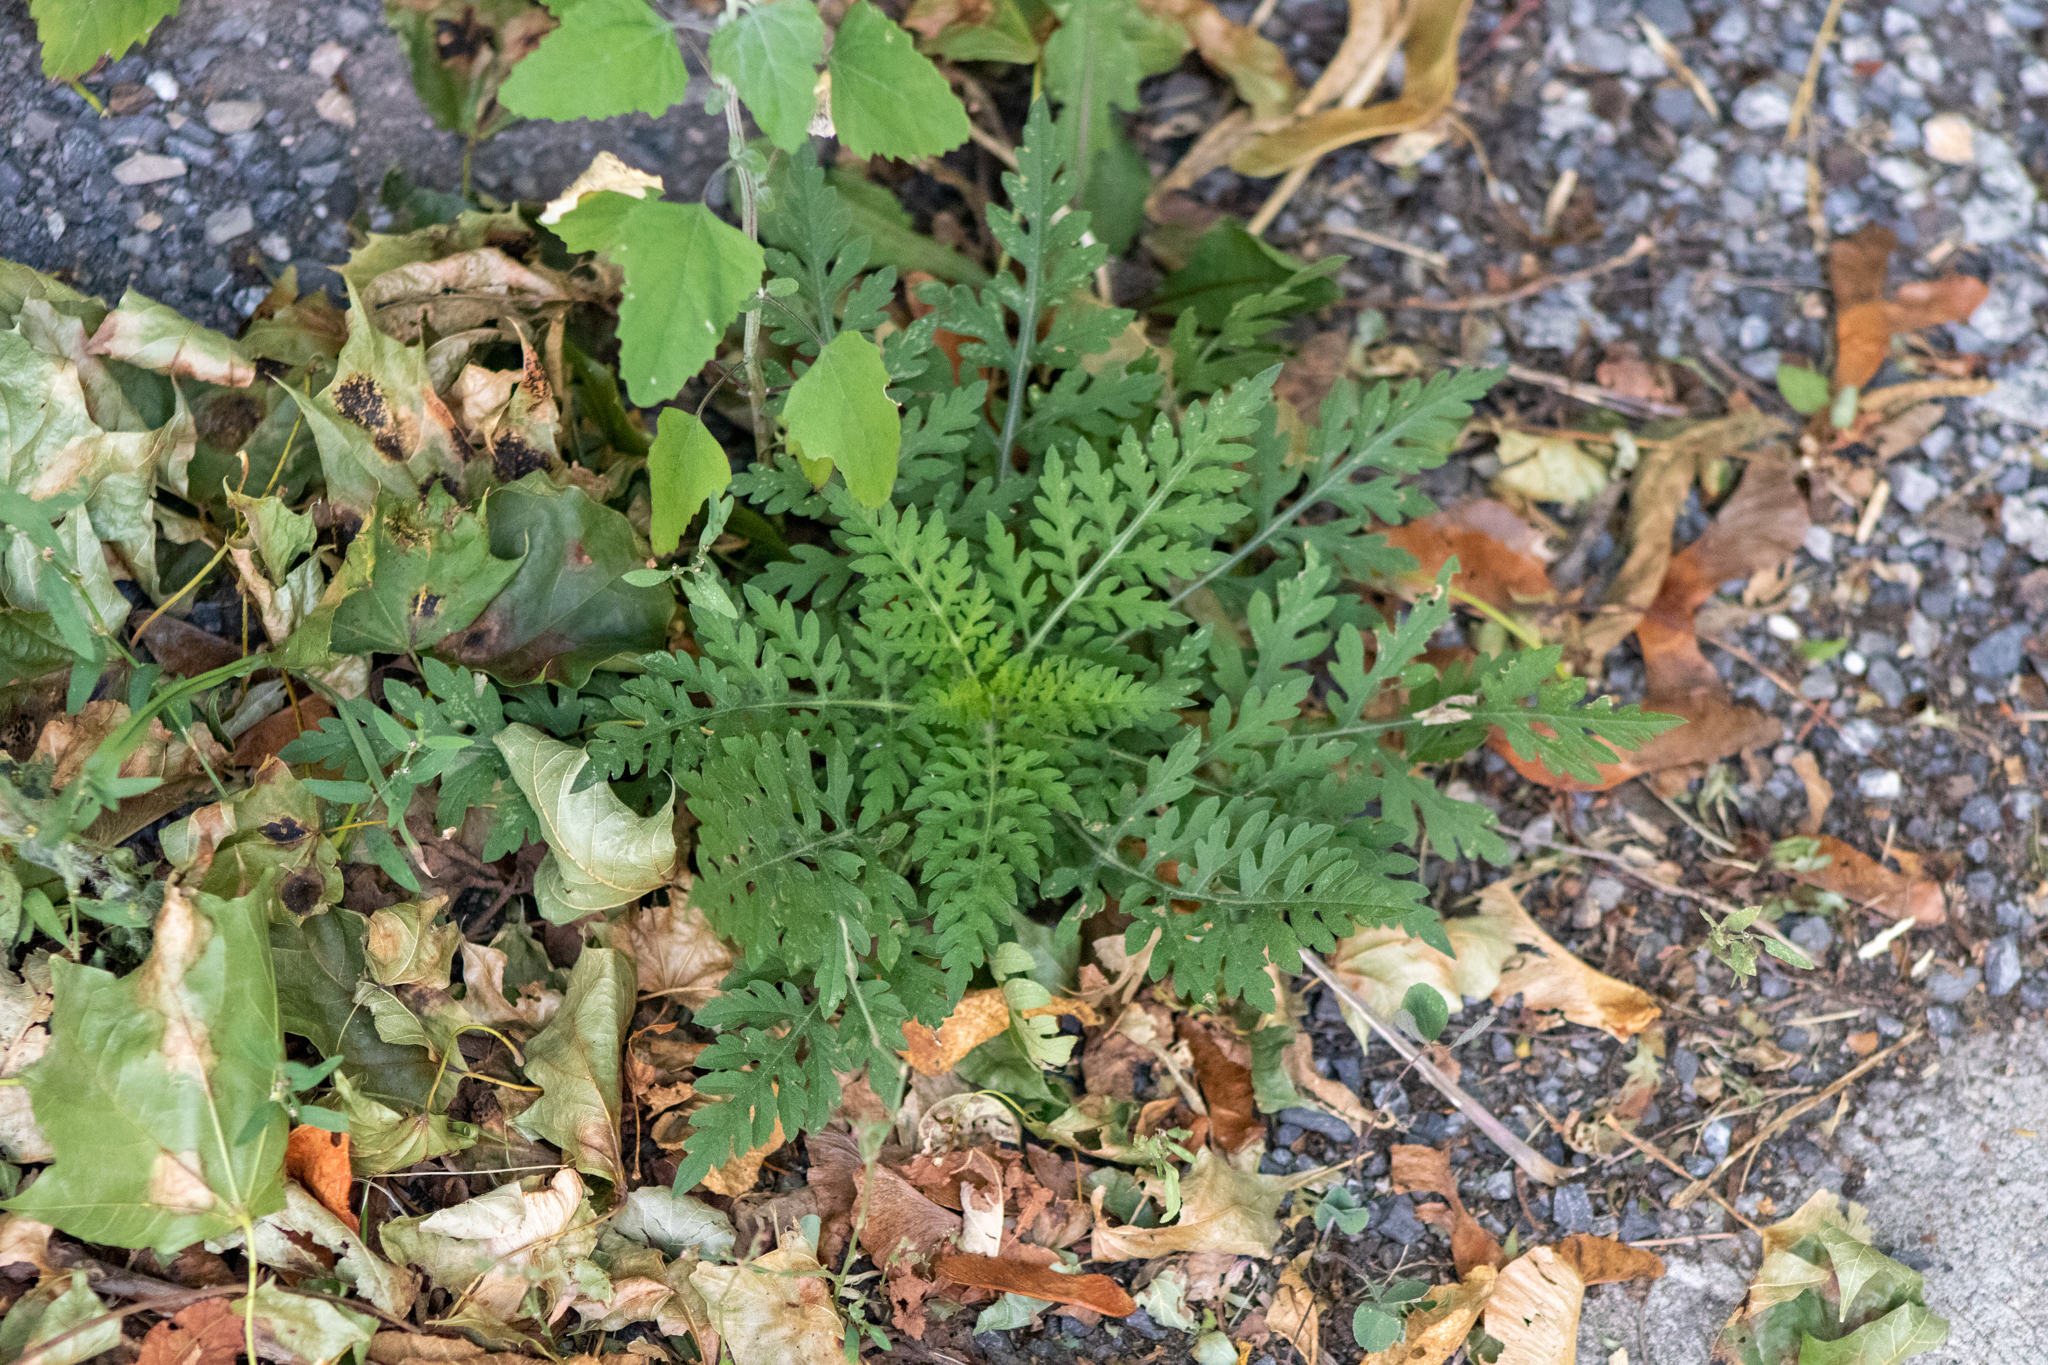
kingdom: Plantae
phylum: Tracheophyta
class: Magnoliopsida
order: Asterales
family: Asteraceae
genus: Ambrosia
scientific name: Ambrosia artemisiifolia
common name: Annual ragweed
